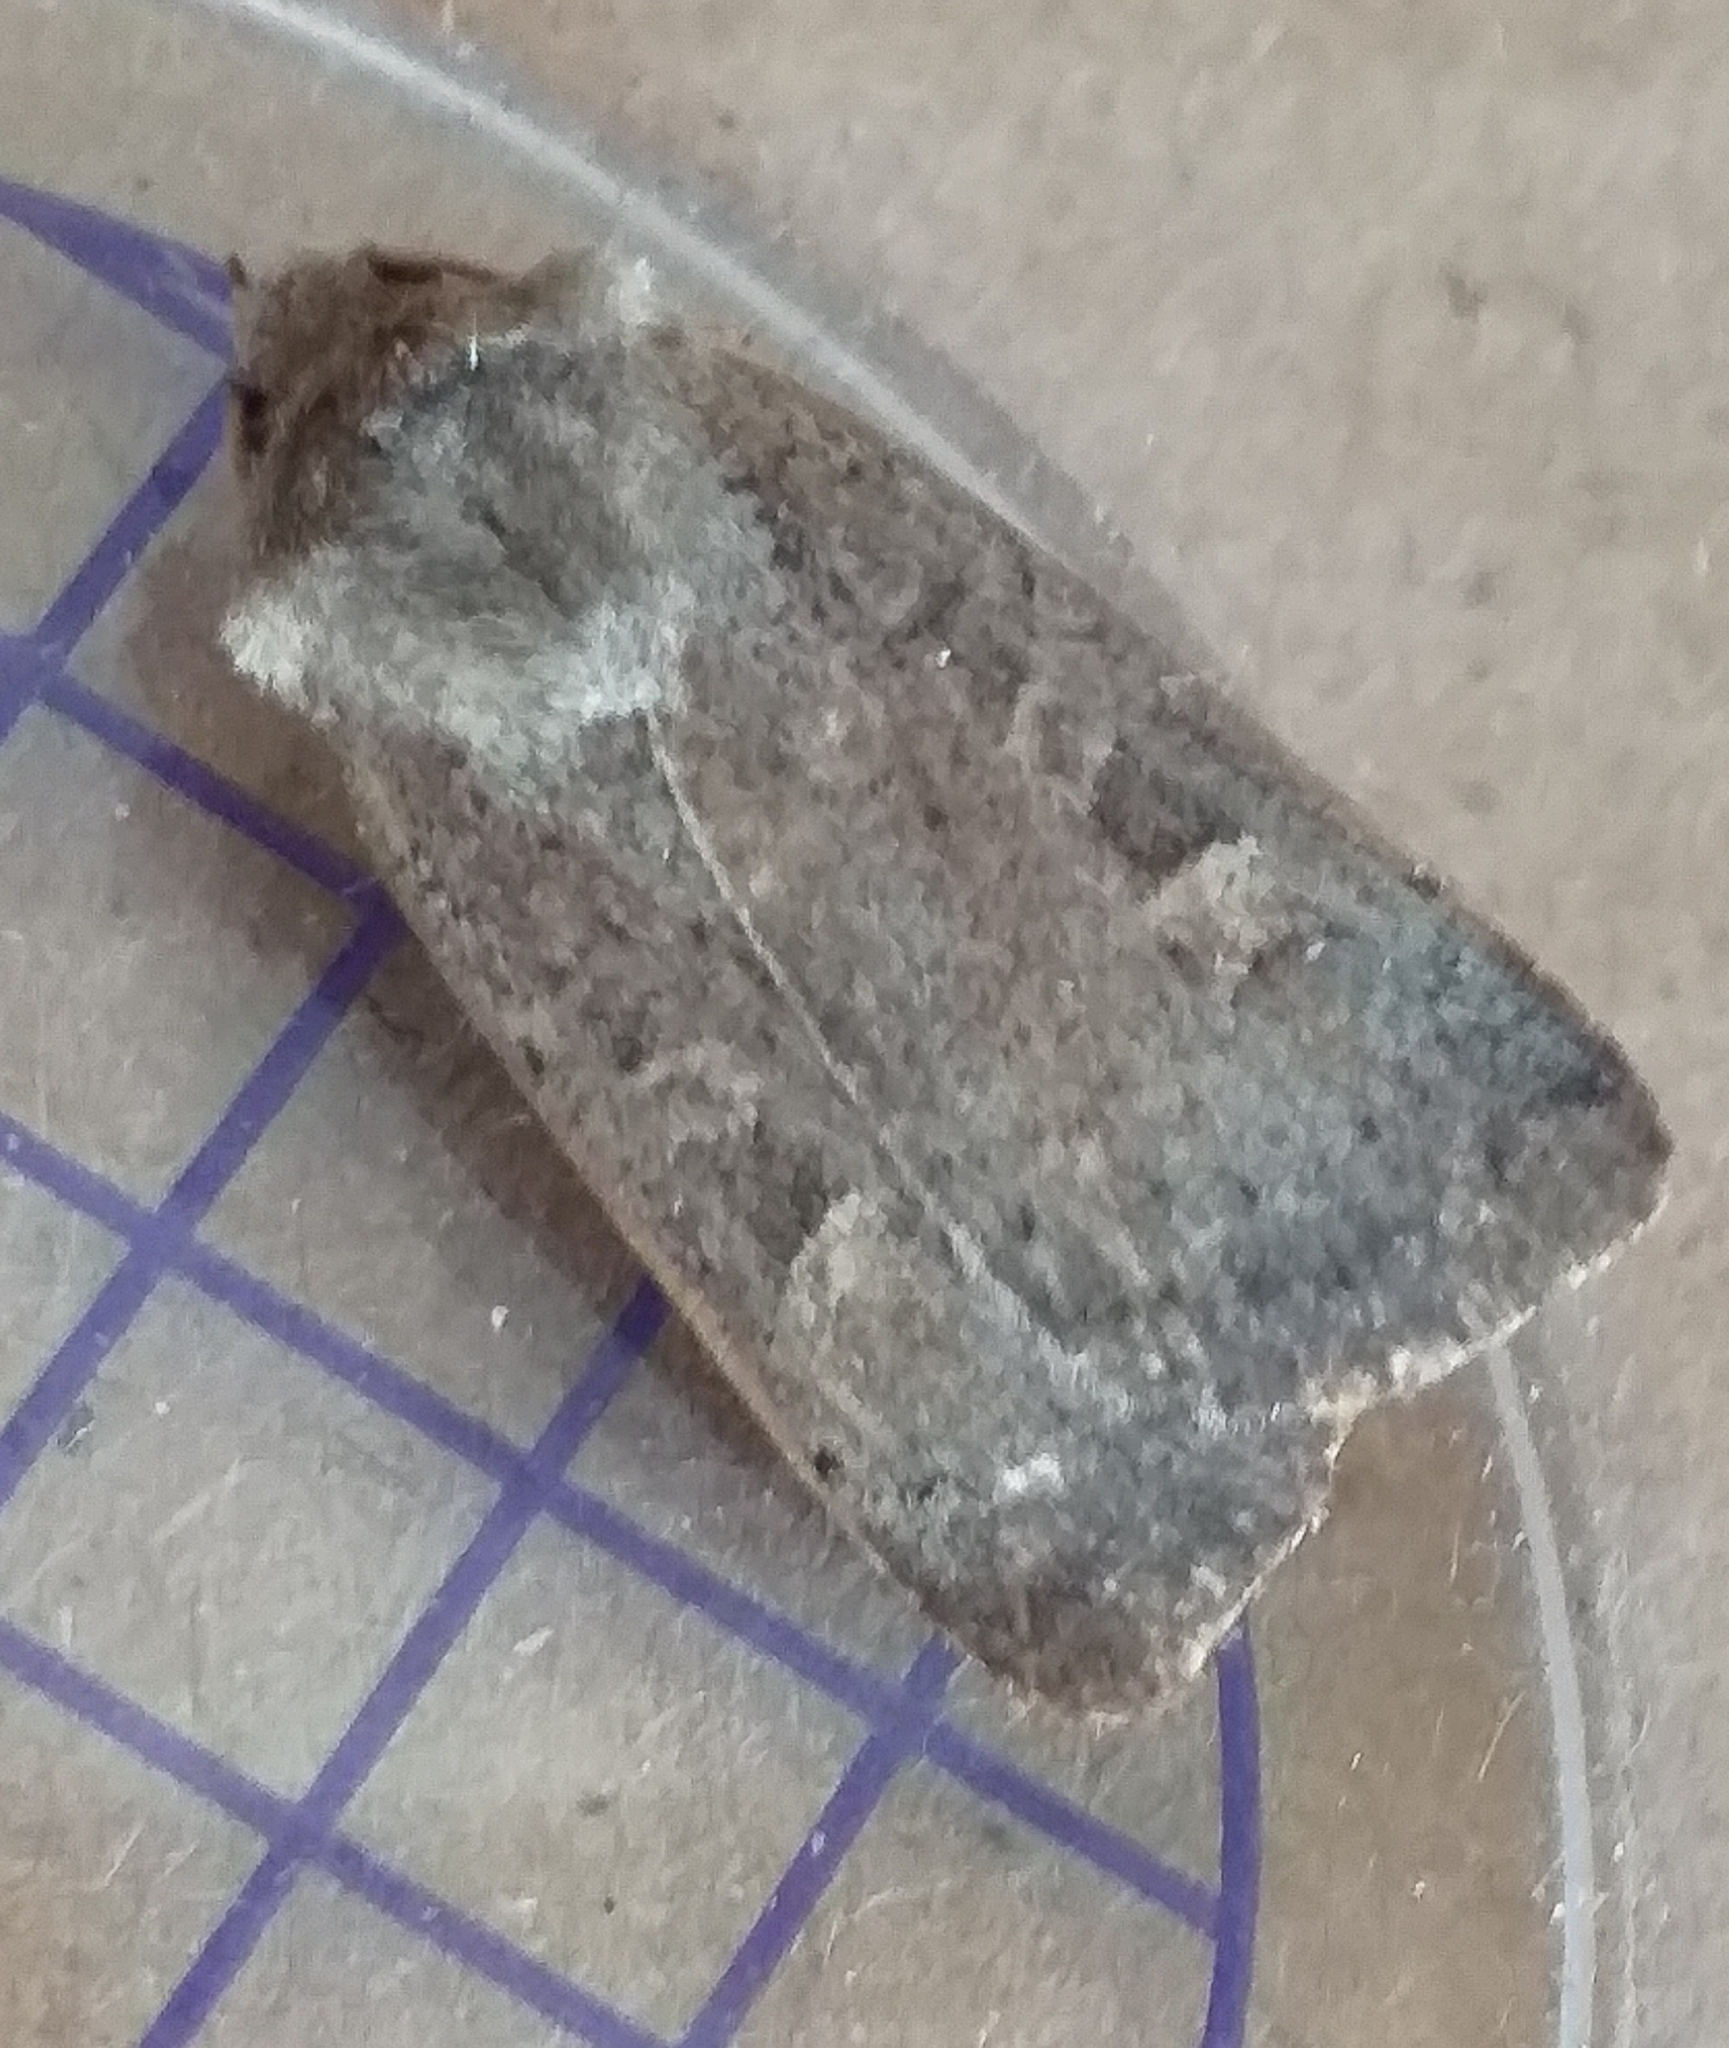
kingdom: Animalia
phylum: Arthropoda
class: Insecta
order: Lepidoptera
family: Noctuidae
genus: Xestia
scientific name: Xestia xanthographa
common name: Square-spot rustic
